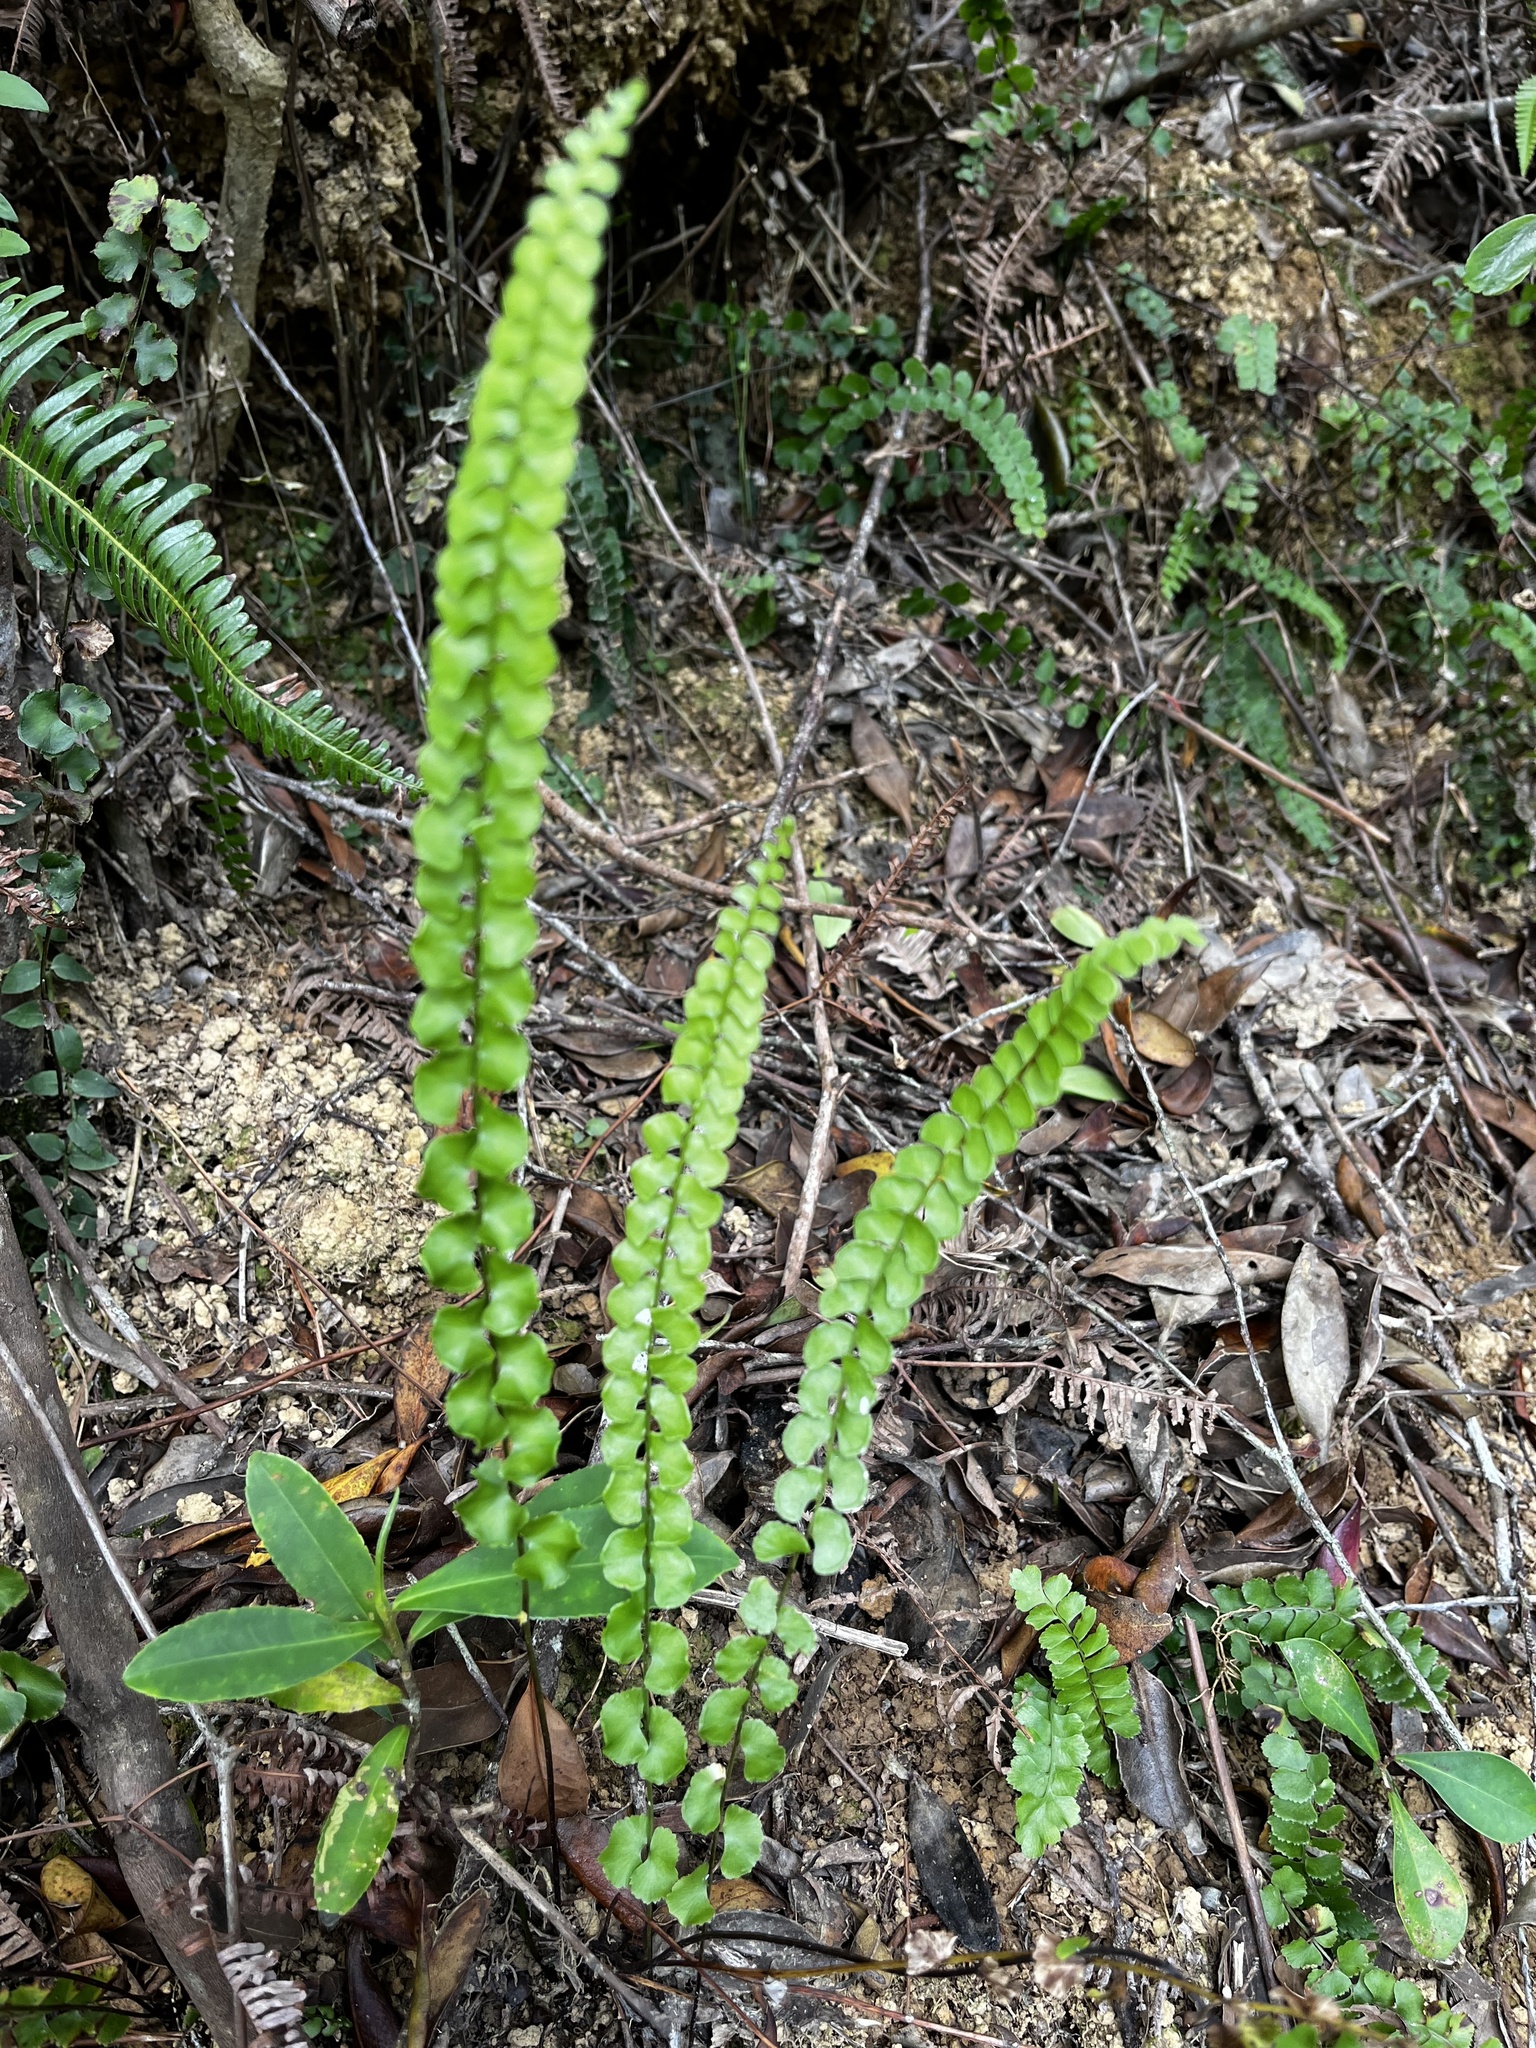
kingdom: Plantae
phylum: Tracheophyta
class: Polypodiopsida
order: Polypodiales
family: Lindsaeaceae
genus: Lindsaea
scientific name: Lindsaea orbiculata
